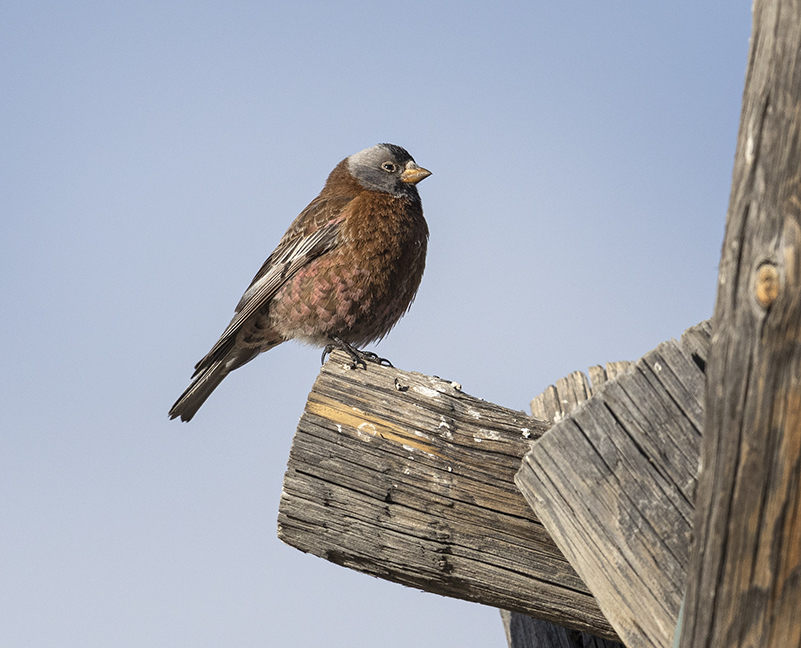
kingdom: Animalia
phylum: Chordata
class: Aves
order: Passeriformes
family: Fringillidae
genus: Leucosticte
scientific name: Leucosticte tephrocotis
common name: Gray-crowned rosy-finch
